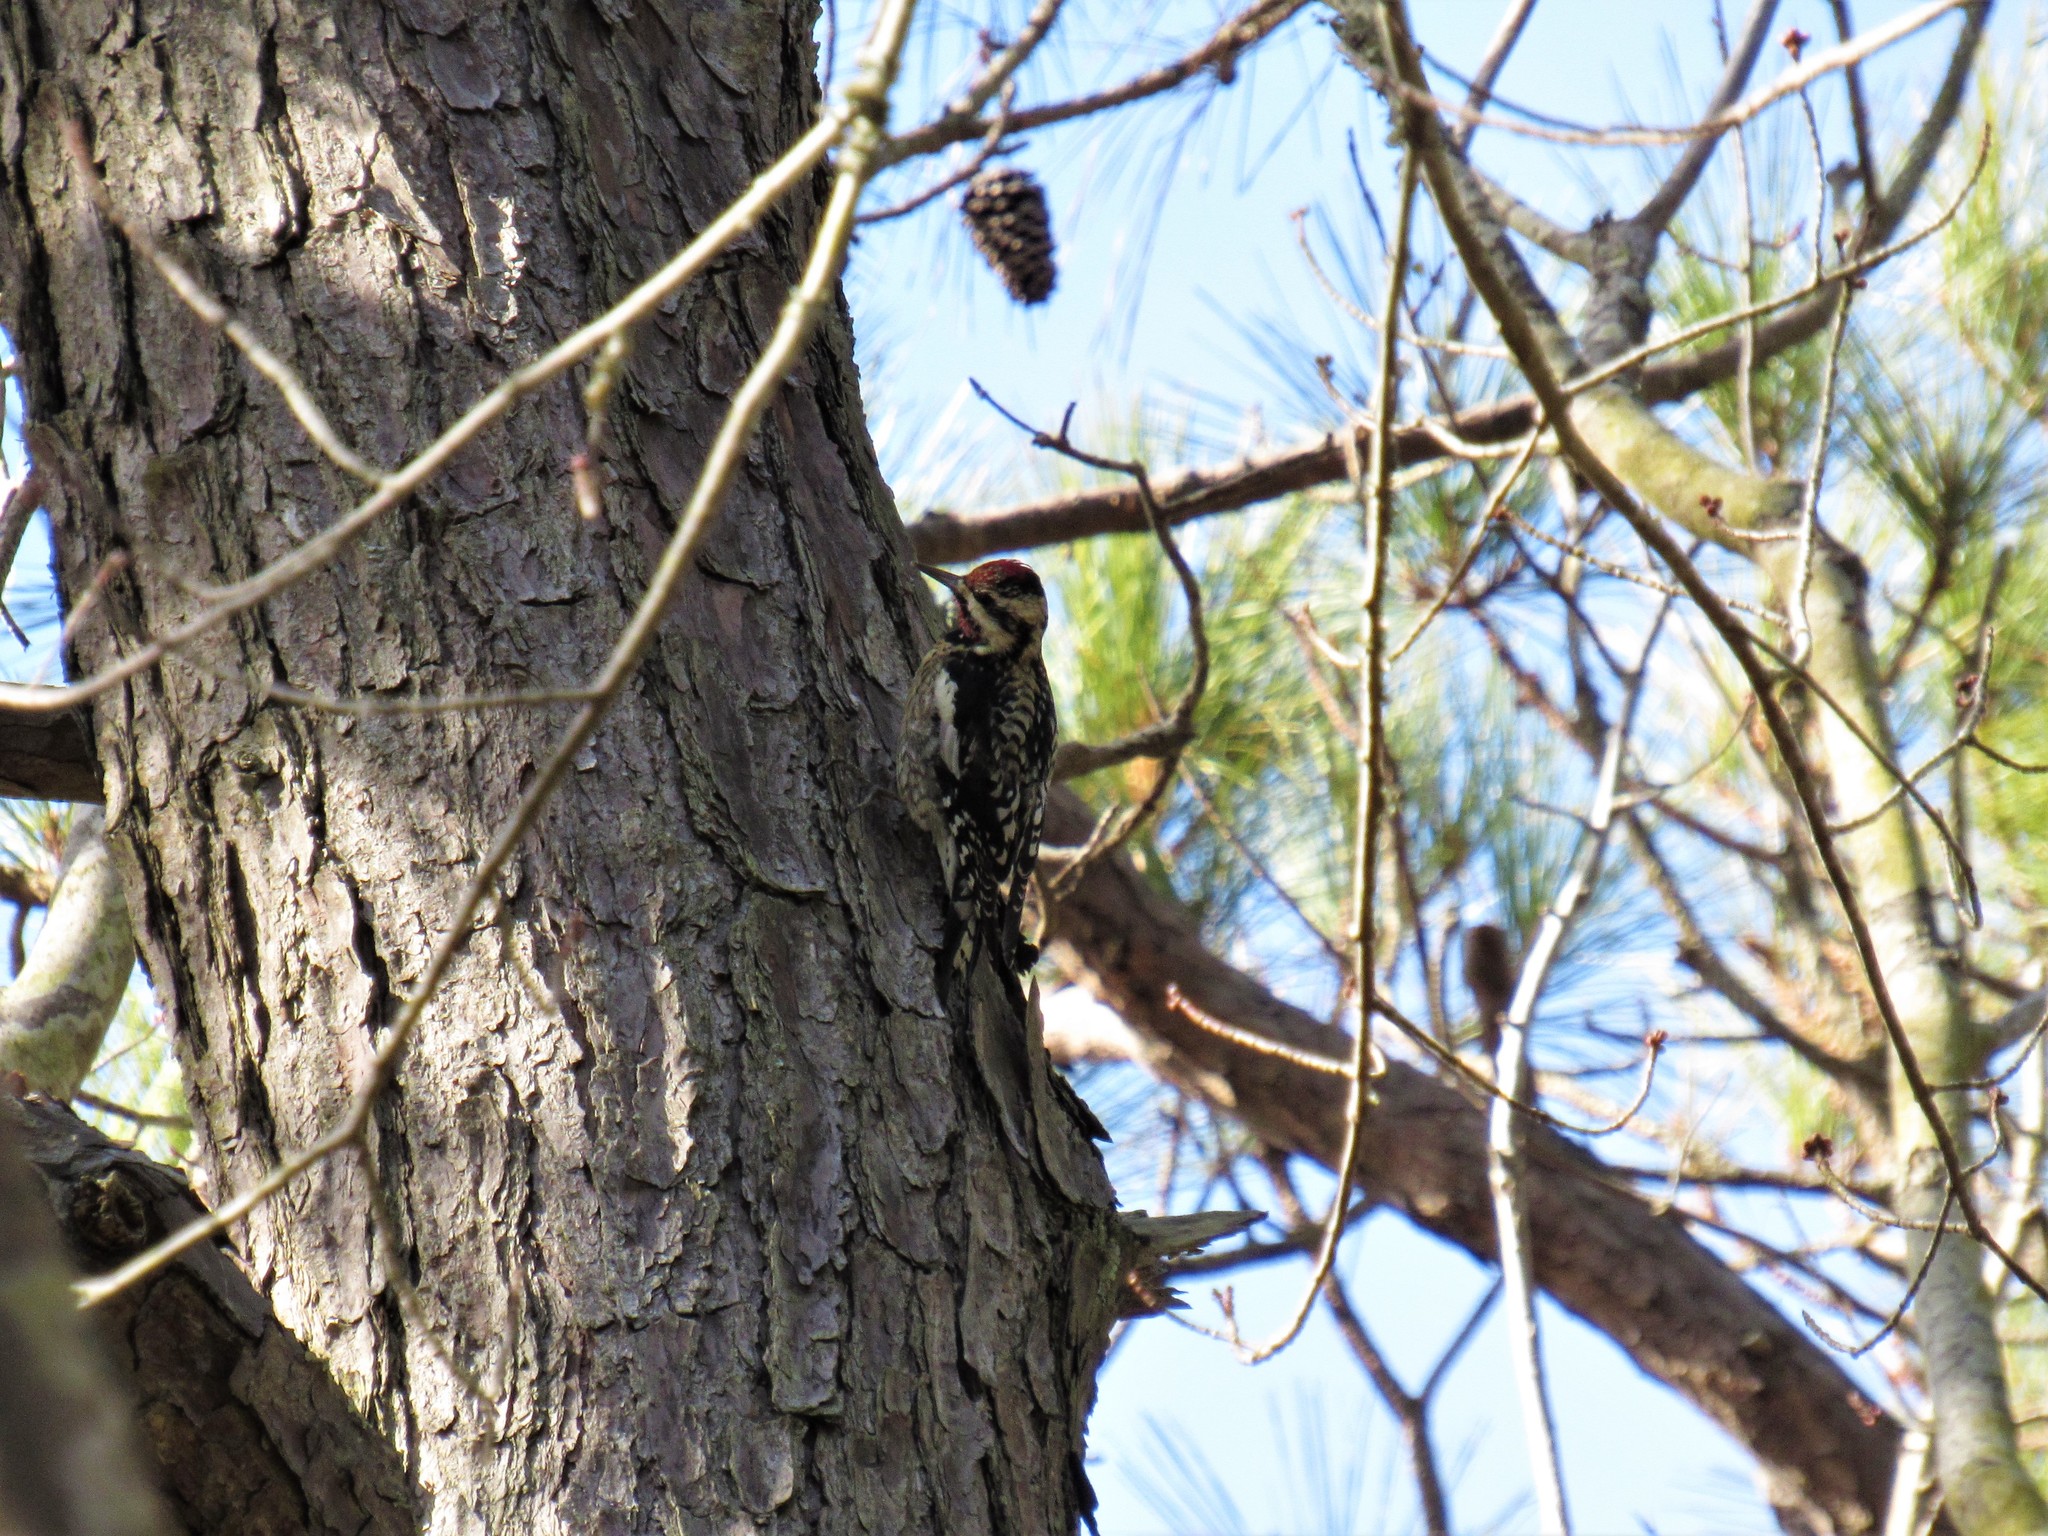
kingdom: Animalia
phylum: Chordata
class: Aves
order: Piciformes
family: Picidae
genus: Sphyrapicus
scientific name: Sphyrapicus varius
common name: Yellow-bellied sapsucker
